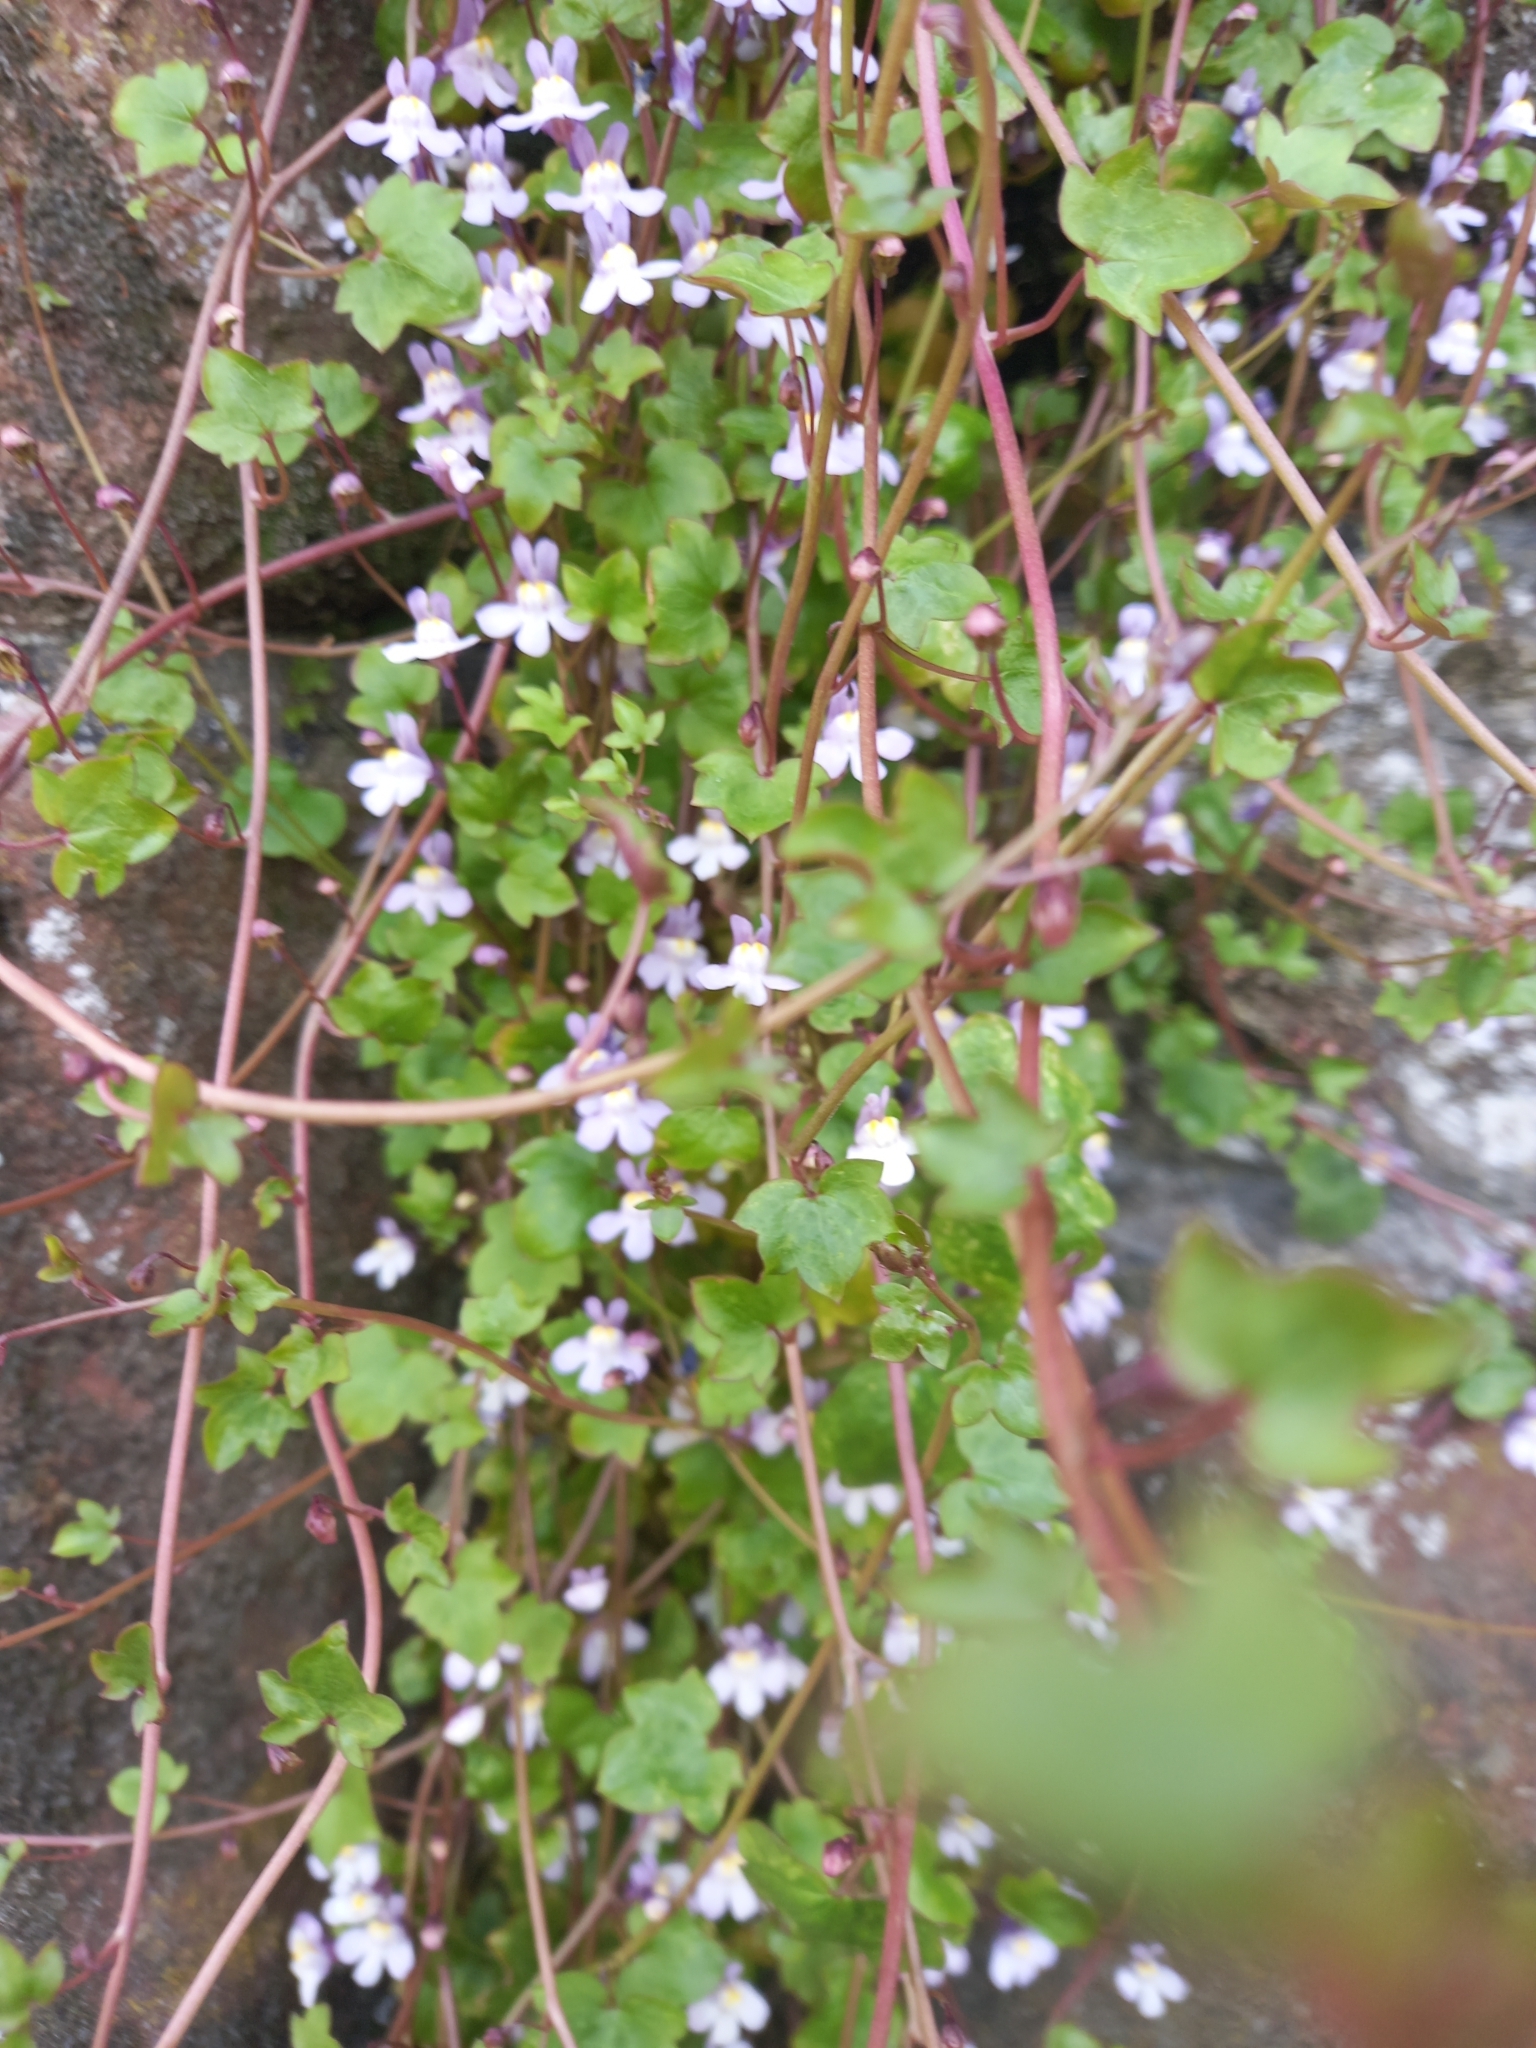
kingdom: Plantae
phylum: Tracheophyta
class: Magnoliopsida
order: Lamiales
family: Plantaginaceae
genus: Cymbalaria
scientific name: Cymbalaria muralis
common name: Ivy-leaved toadflax
